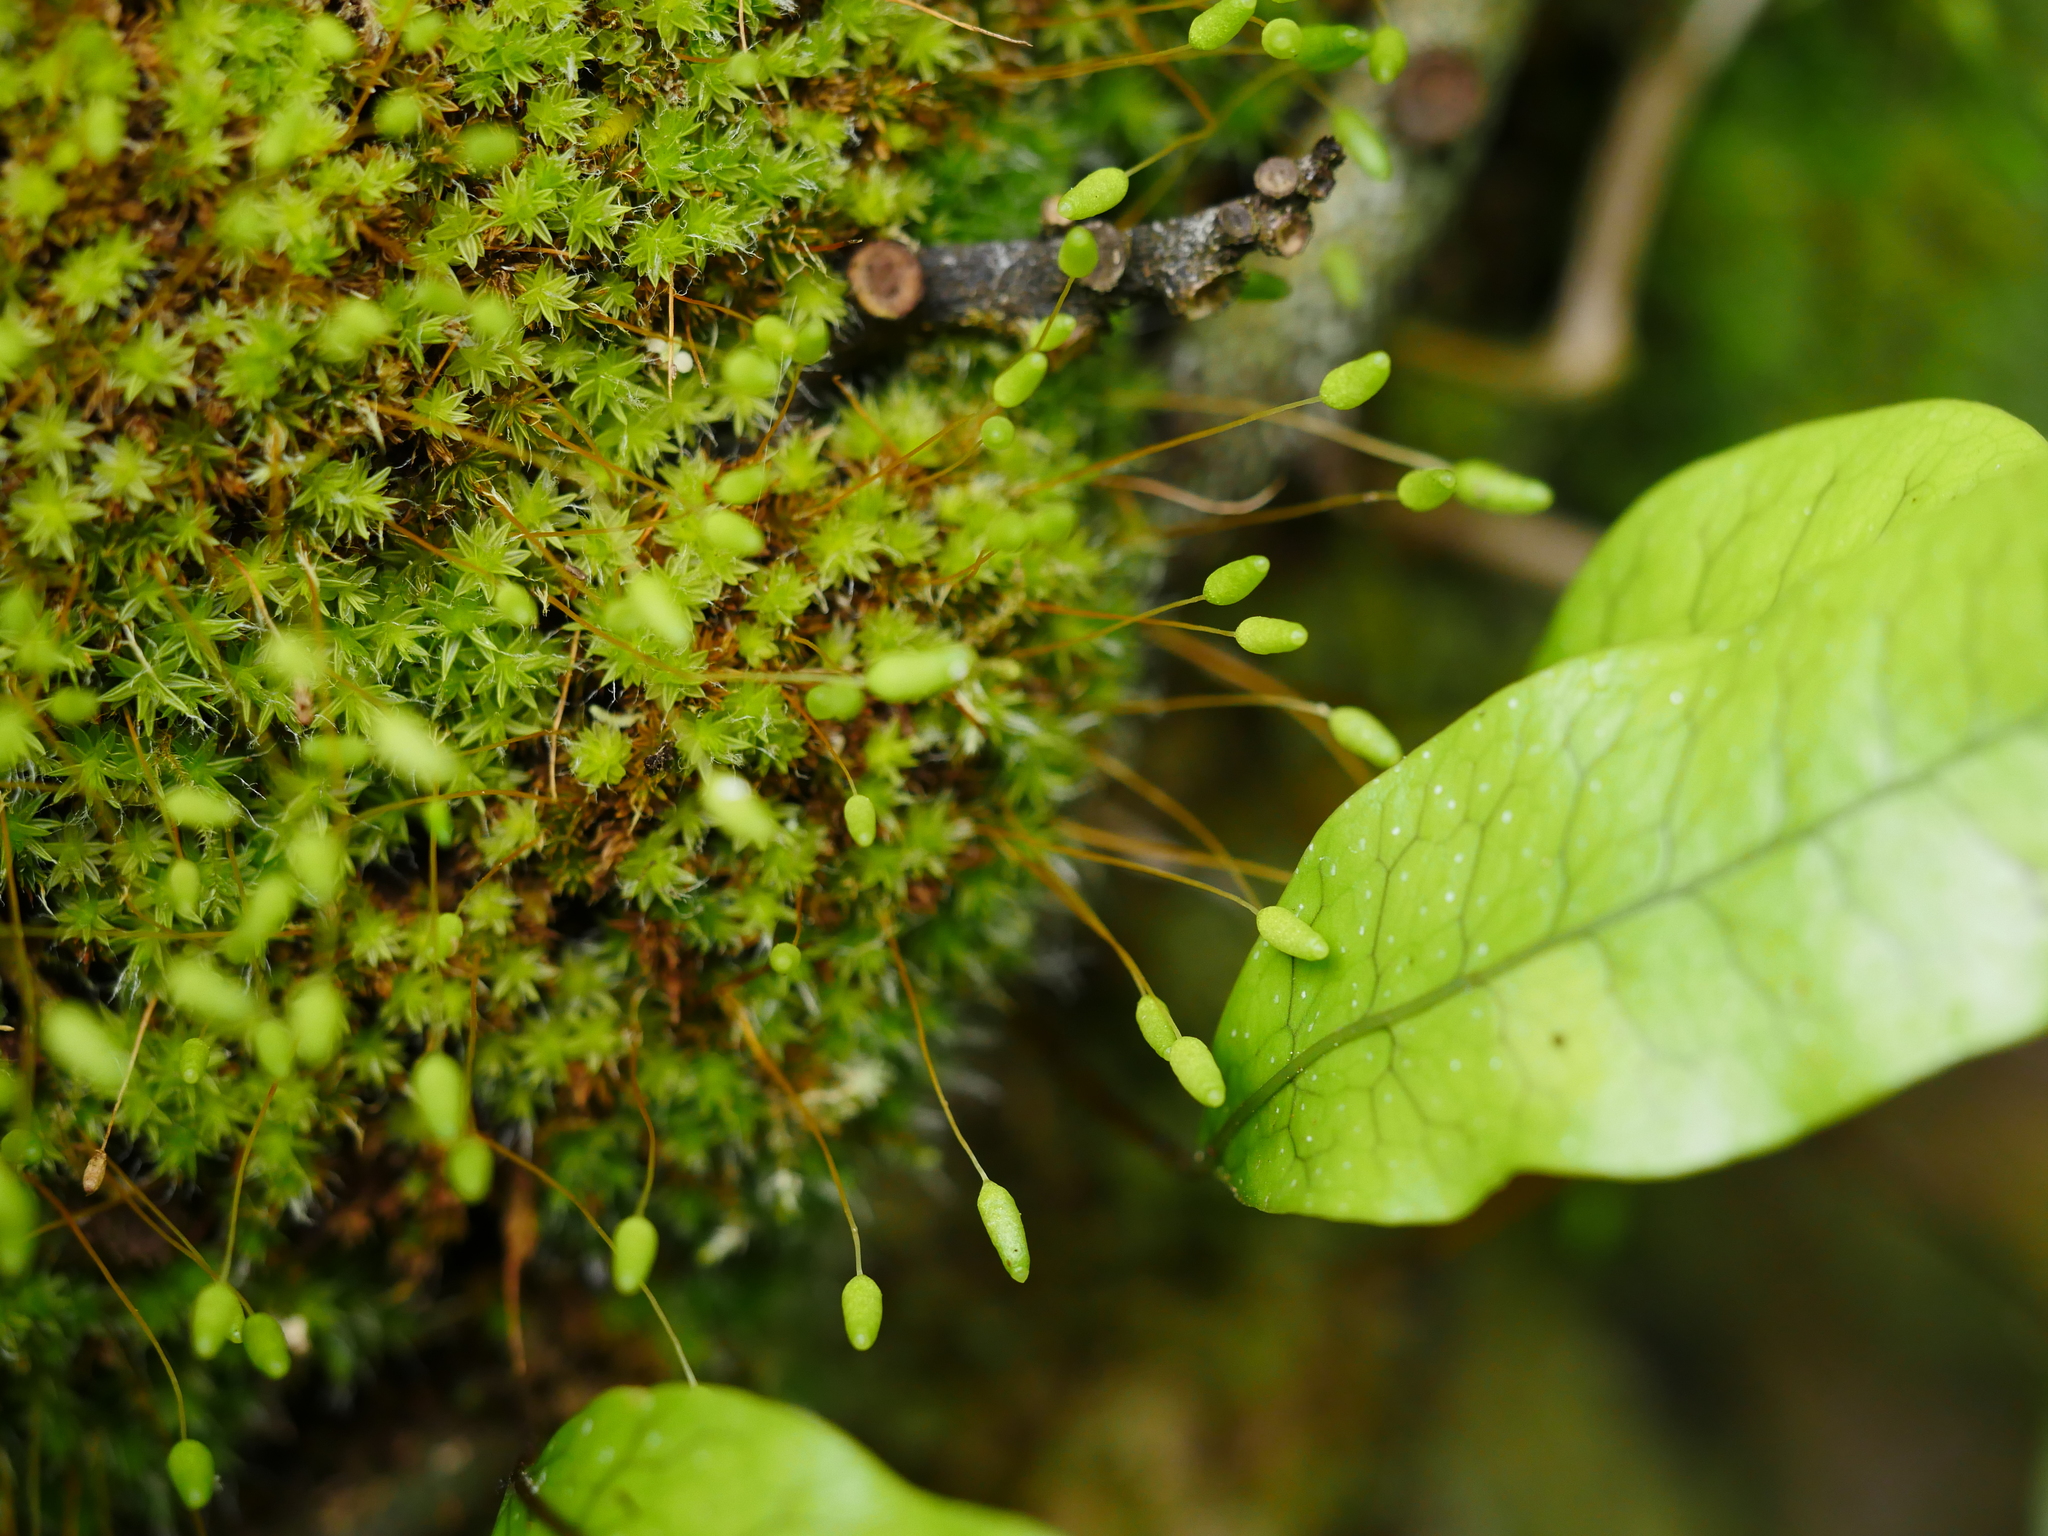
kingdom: Plantae
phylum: Bryophyta
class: Bryopsida
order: Bryales
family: Leptostomataceae
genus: Leptostomum
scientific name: Leptostomum macrocarpon
